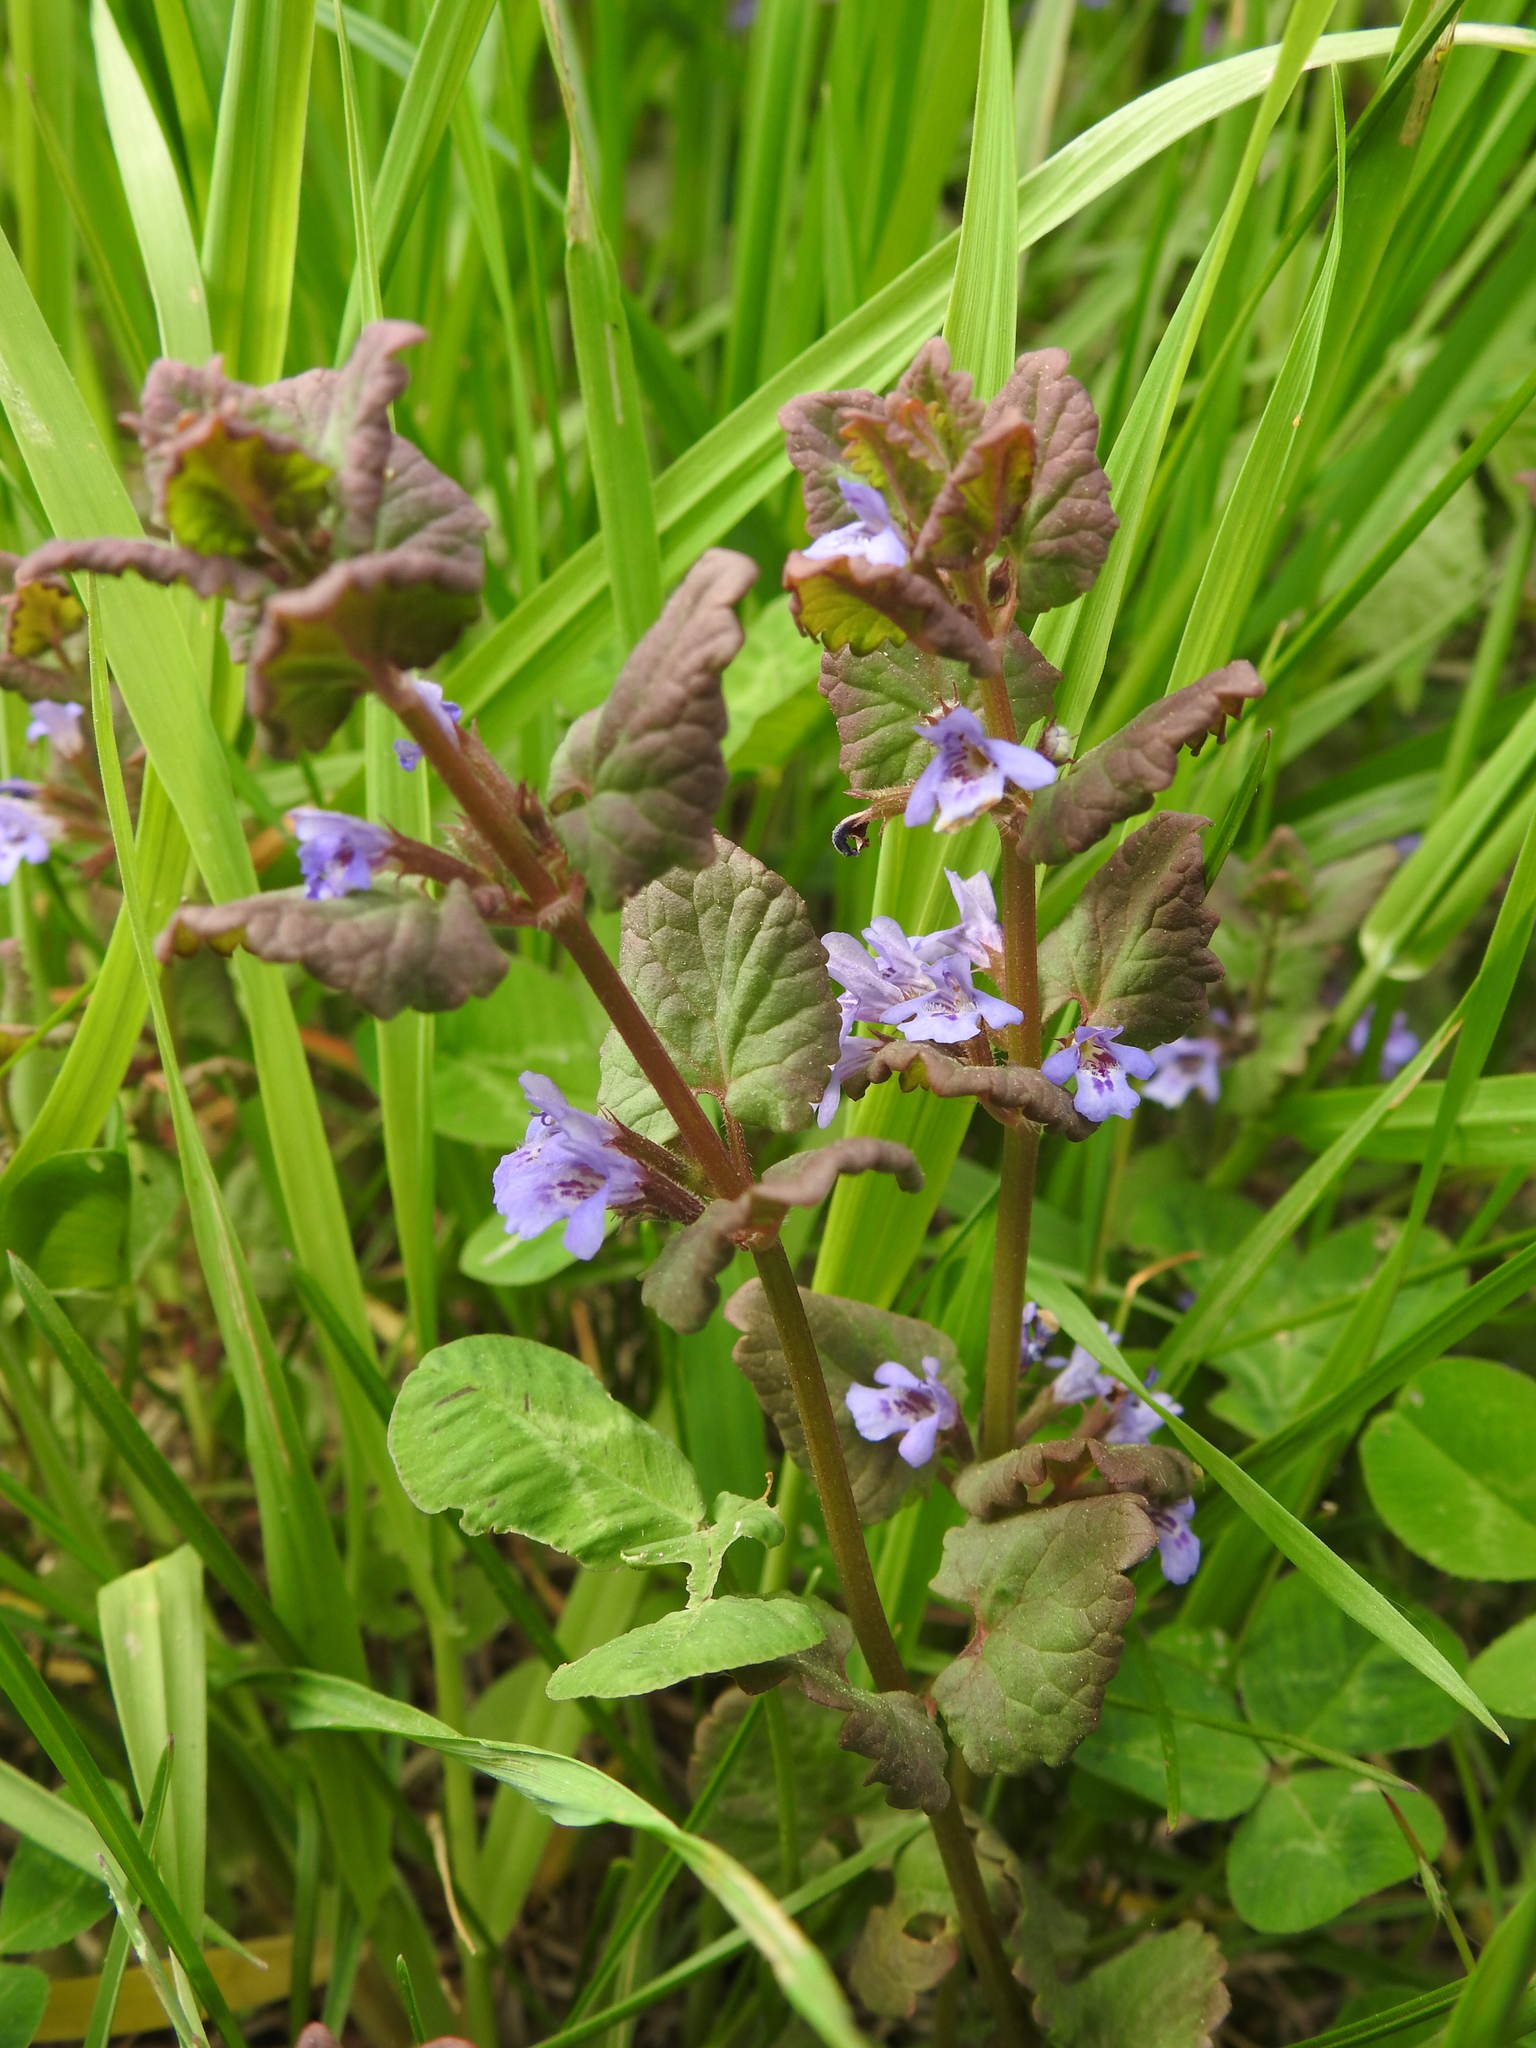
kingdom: Plantae
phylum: Tracheophyta
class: Magnoliopsida
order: Lamiales
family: Lamiaceae
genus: Glechoma
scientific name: Glechoma hederacea
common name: Ground ivy
